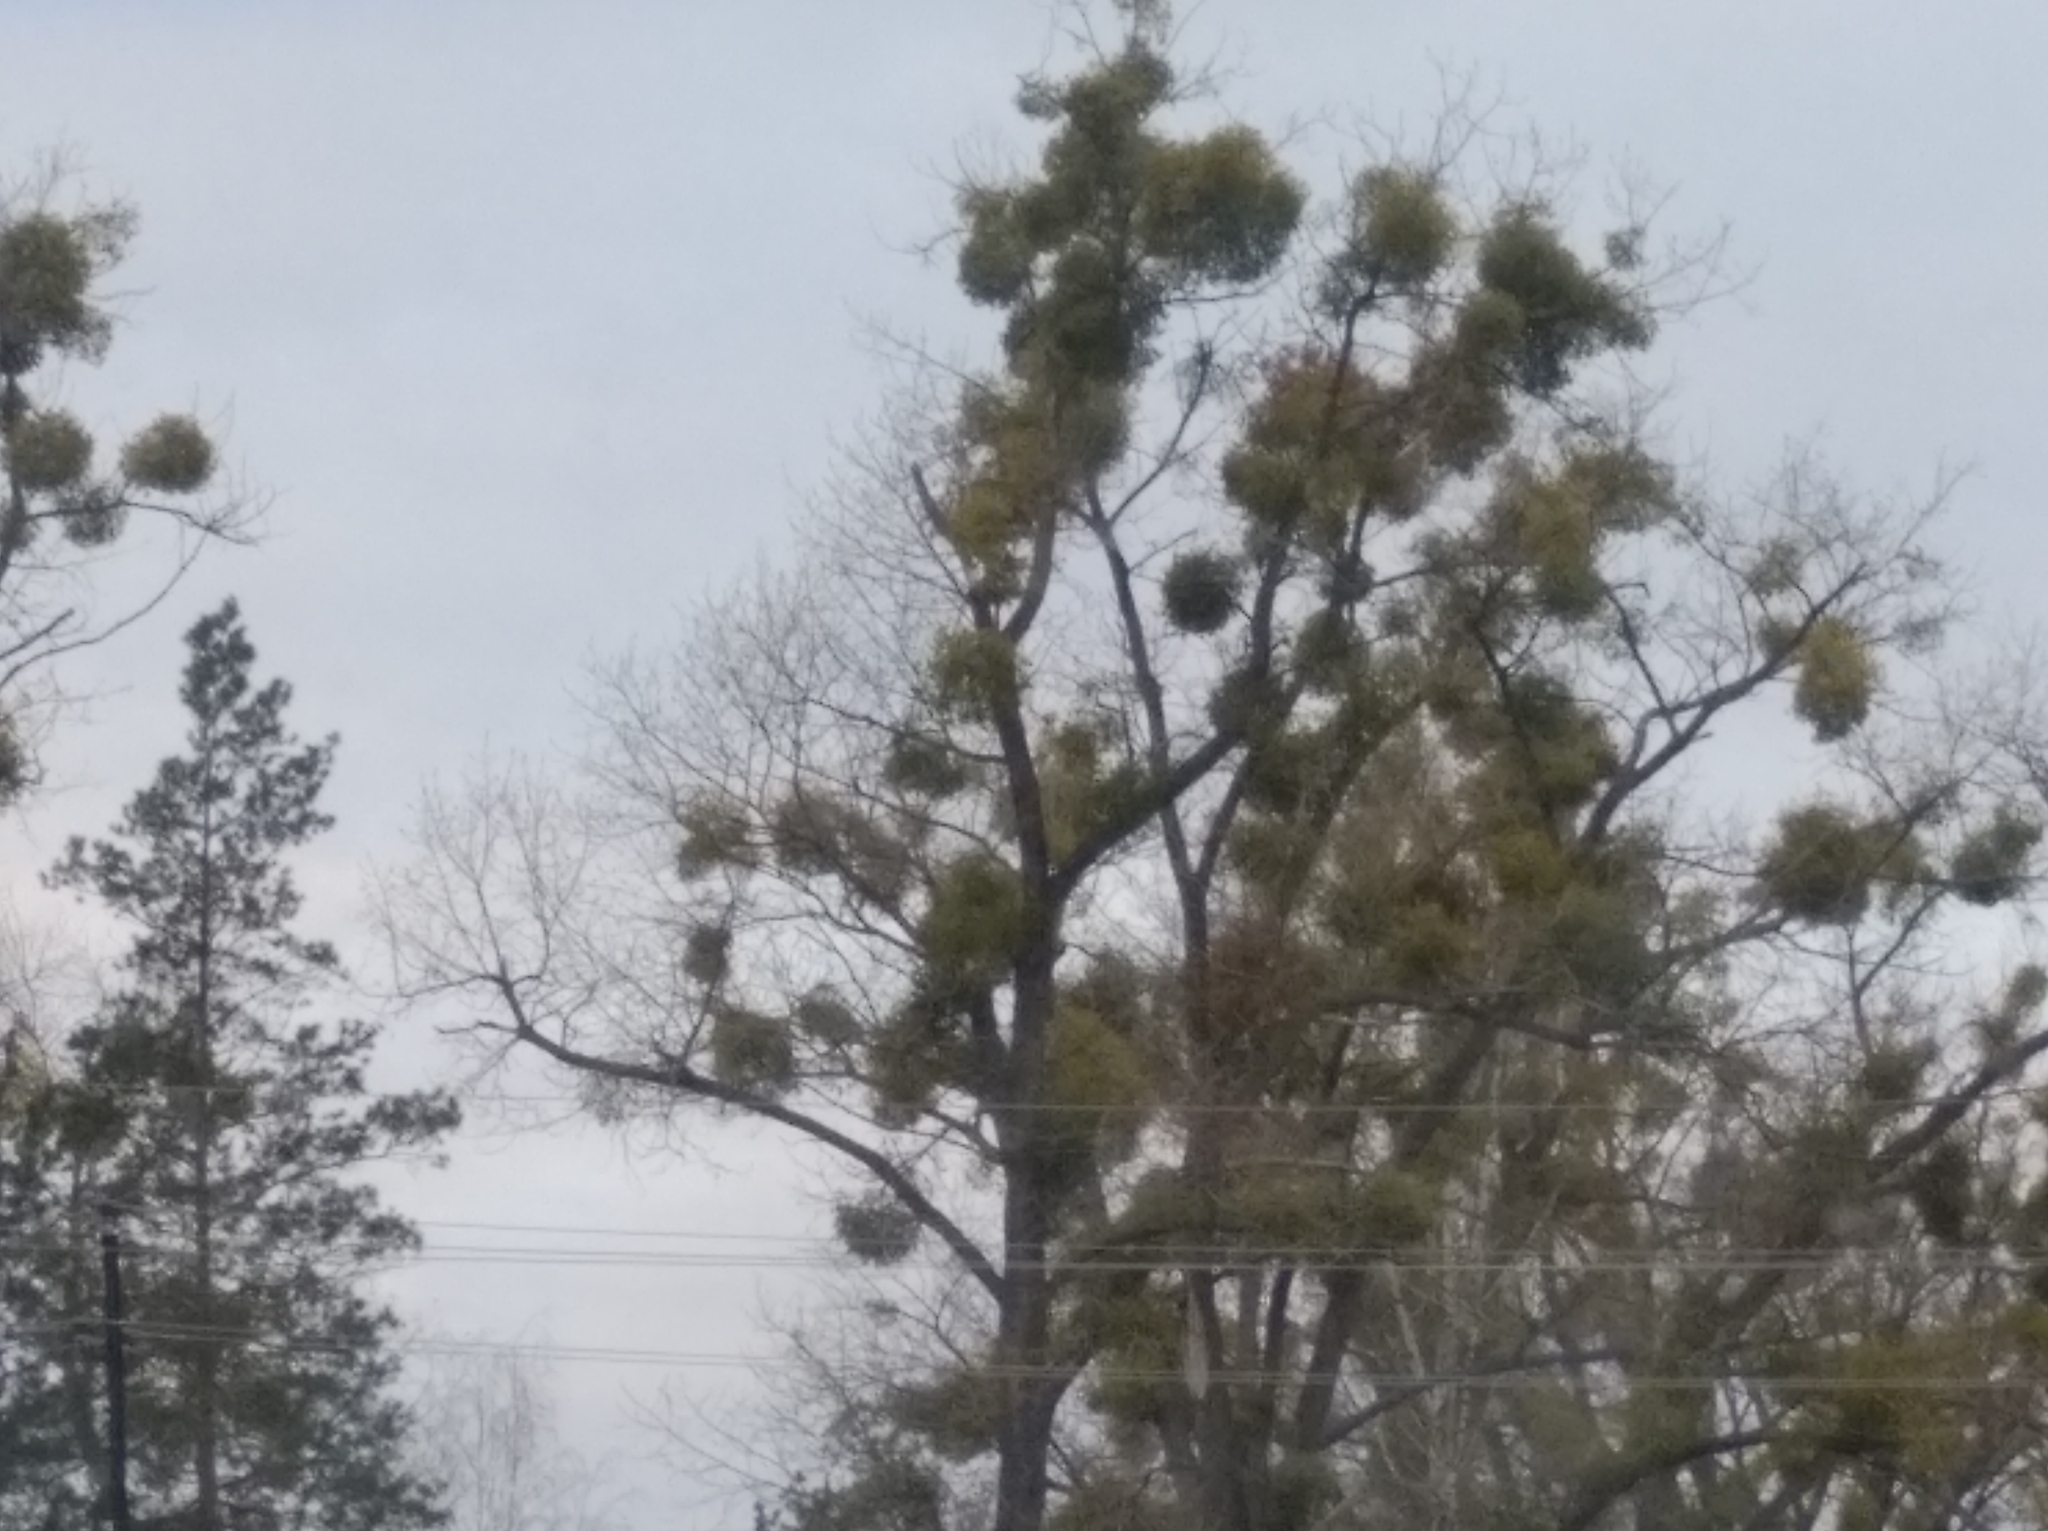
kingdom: Plantae
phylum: Tracheophyta
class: Magnoliopsida
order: Santalales
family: Viscaceae
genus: Viscum
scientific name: Viscum album
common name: Mistletoe
